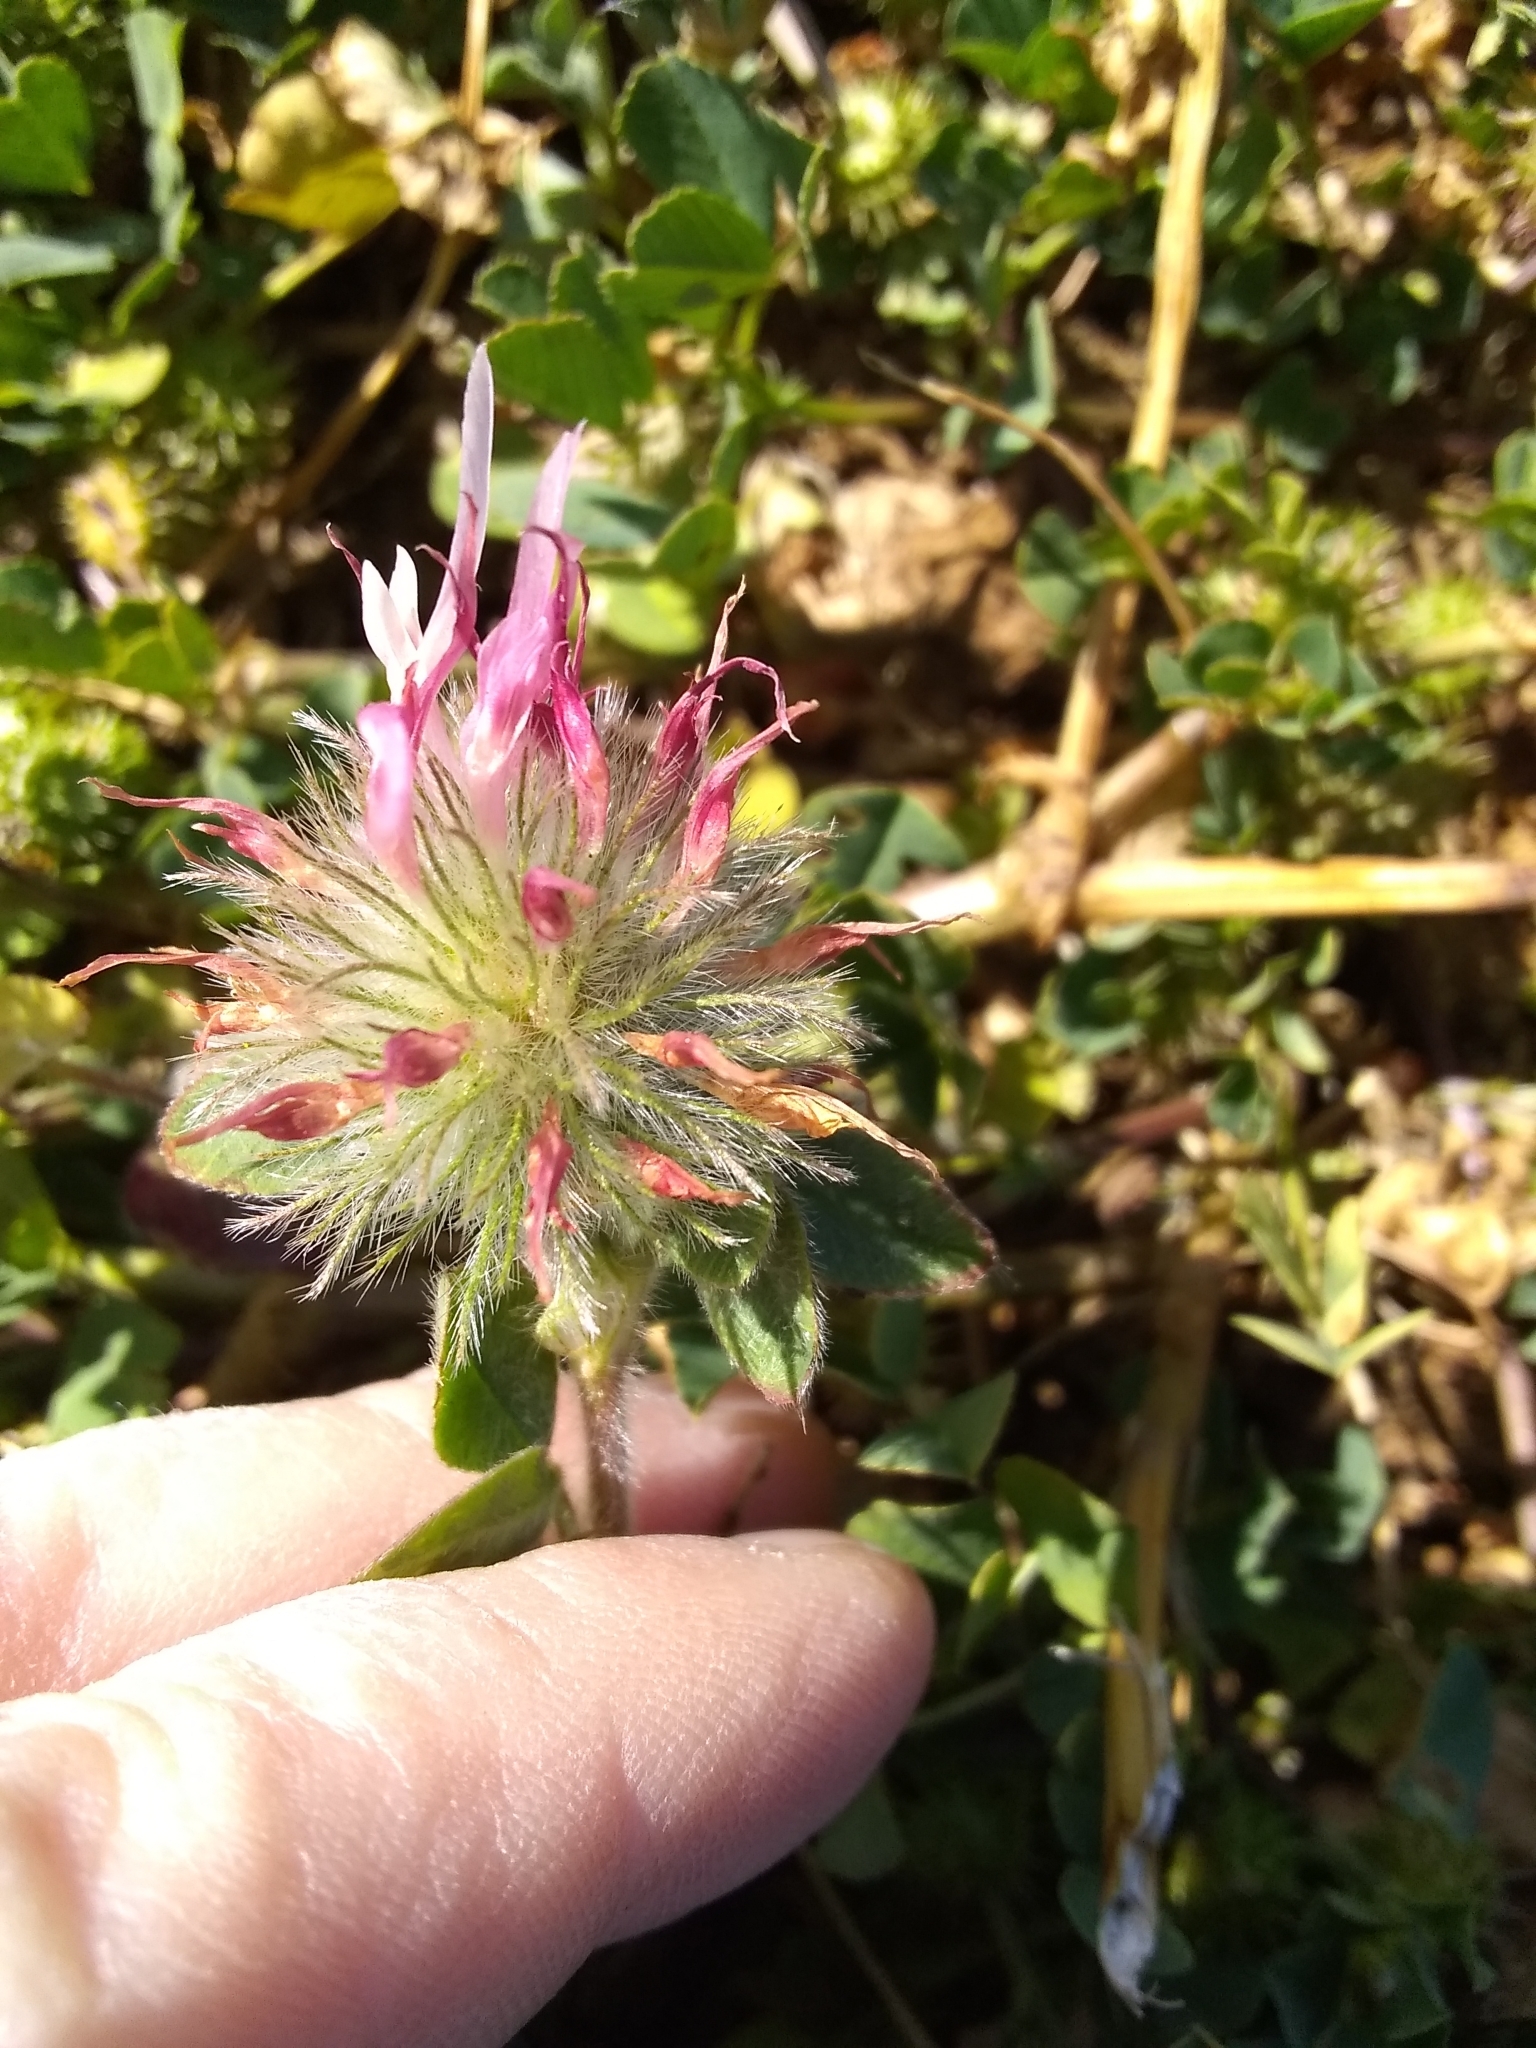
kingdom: Plantae
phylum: Tracheophyta
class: Magnoliopsida
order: Fabales
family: Fabaceae
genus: Trifolium
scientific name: Trifolium hirtum
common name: Rose clover
